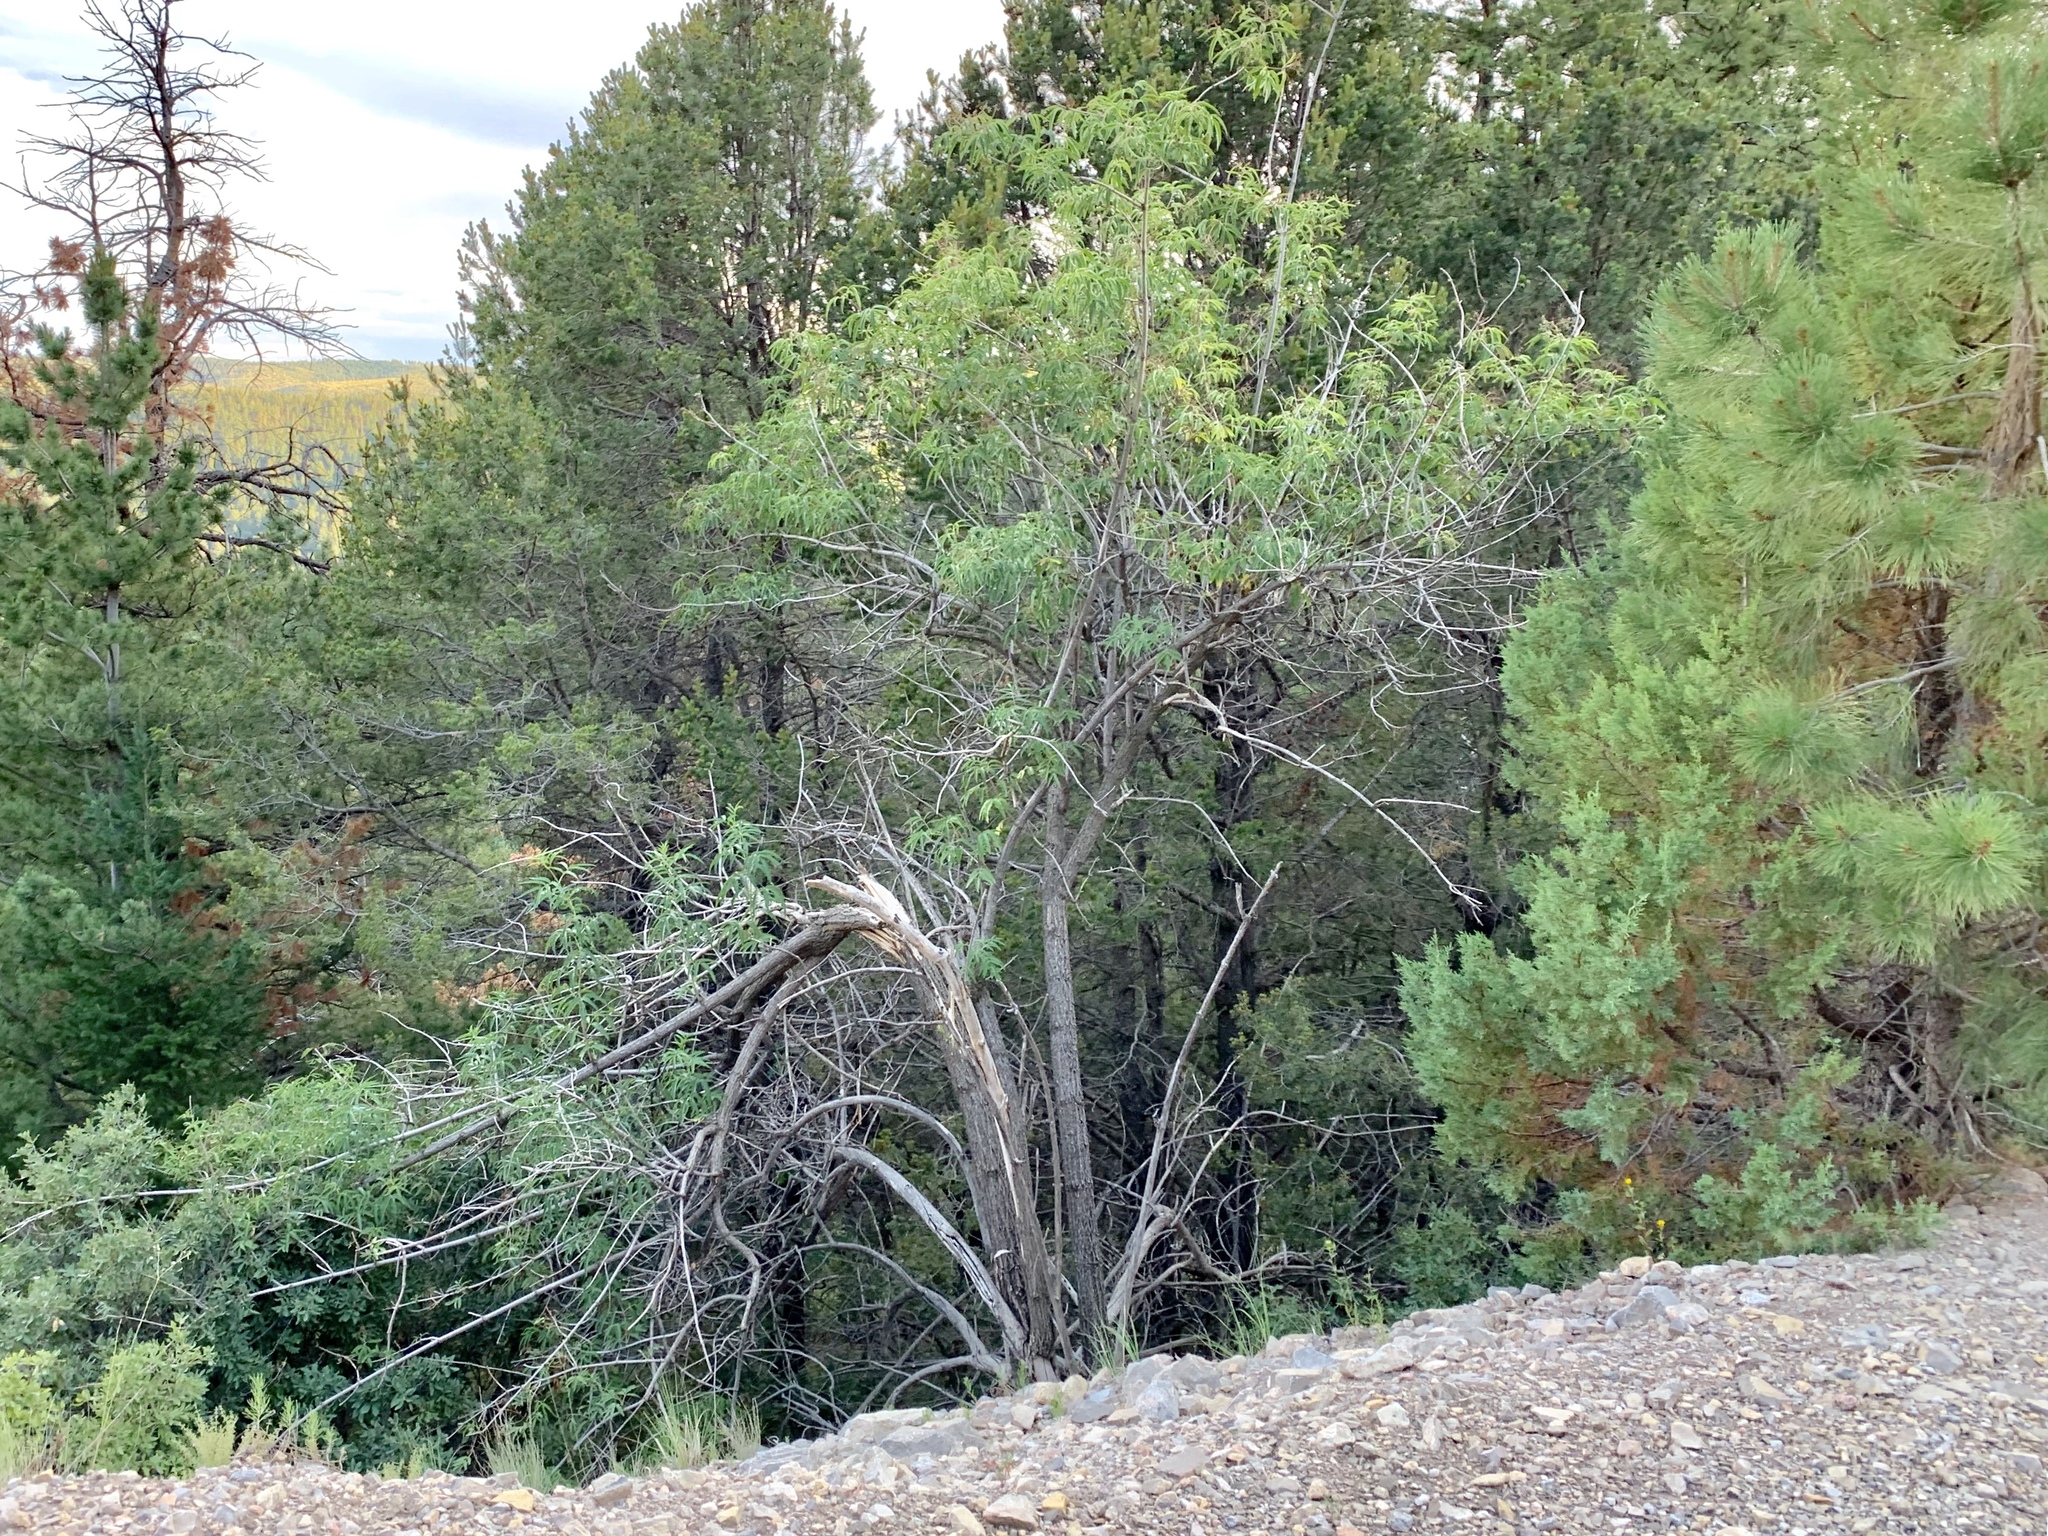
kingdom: Plantae
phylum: Tracheophyta
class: Magnoliopsida
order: Dipsacales
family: Viburnaceae
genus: Sambucus
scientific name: Sambucus cerulea
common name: Blue elder
